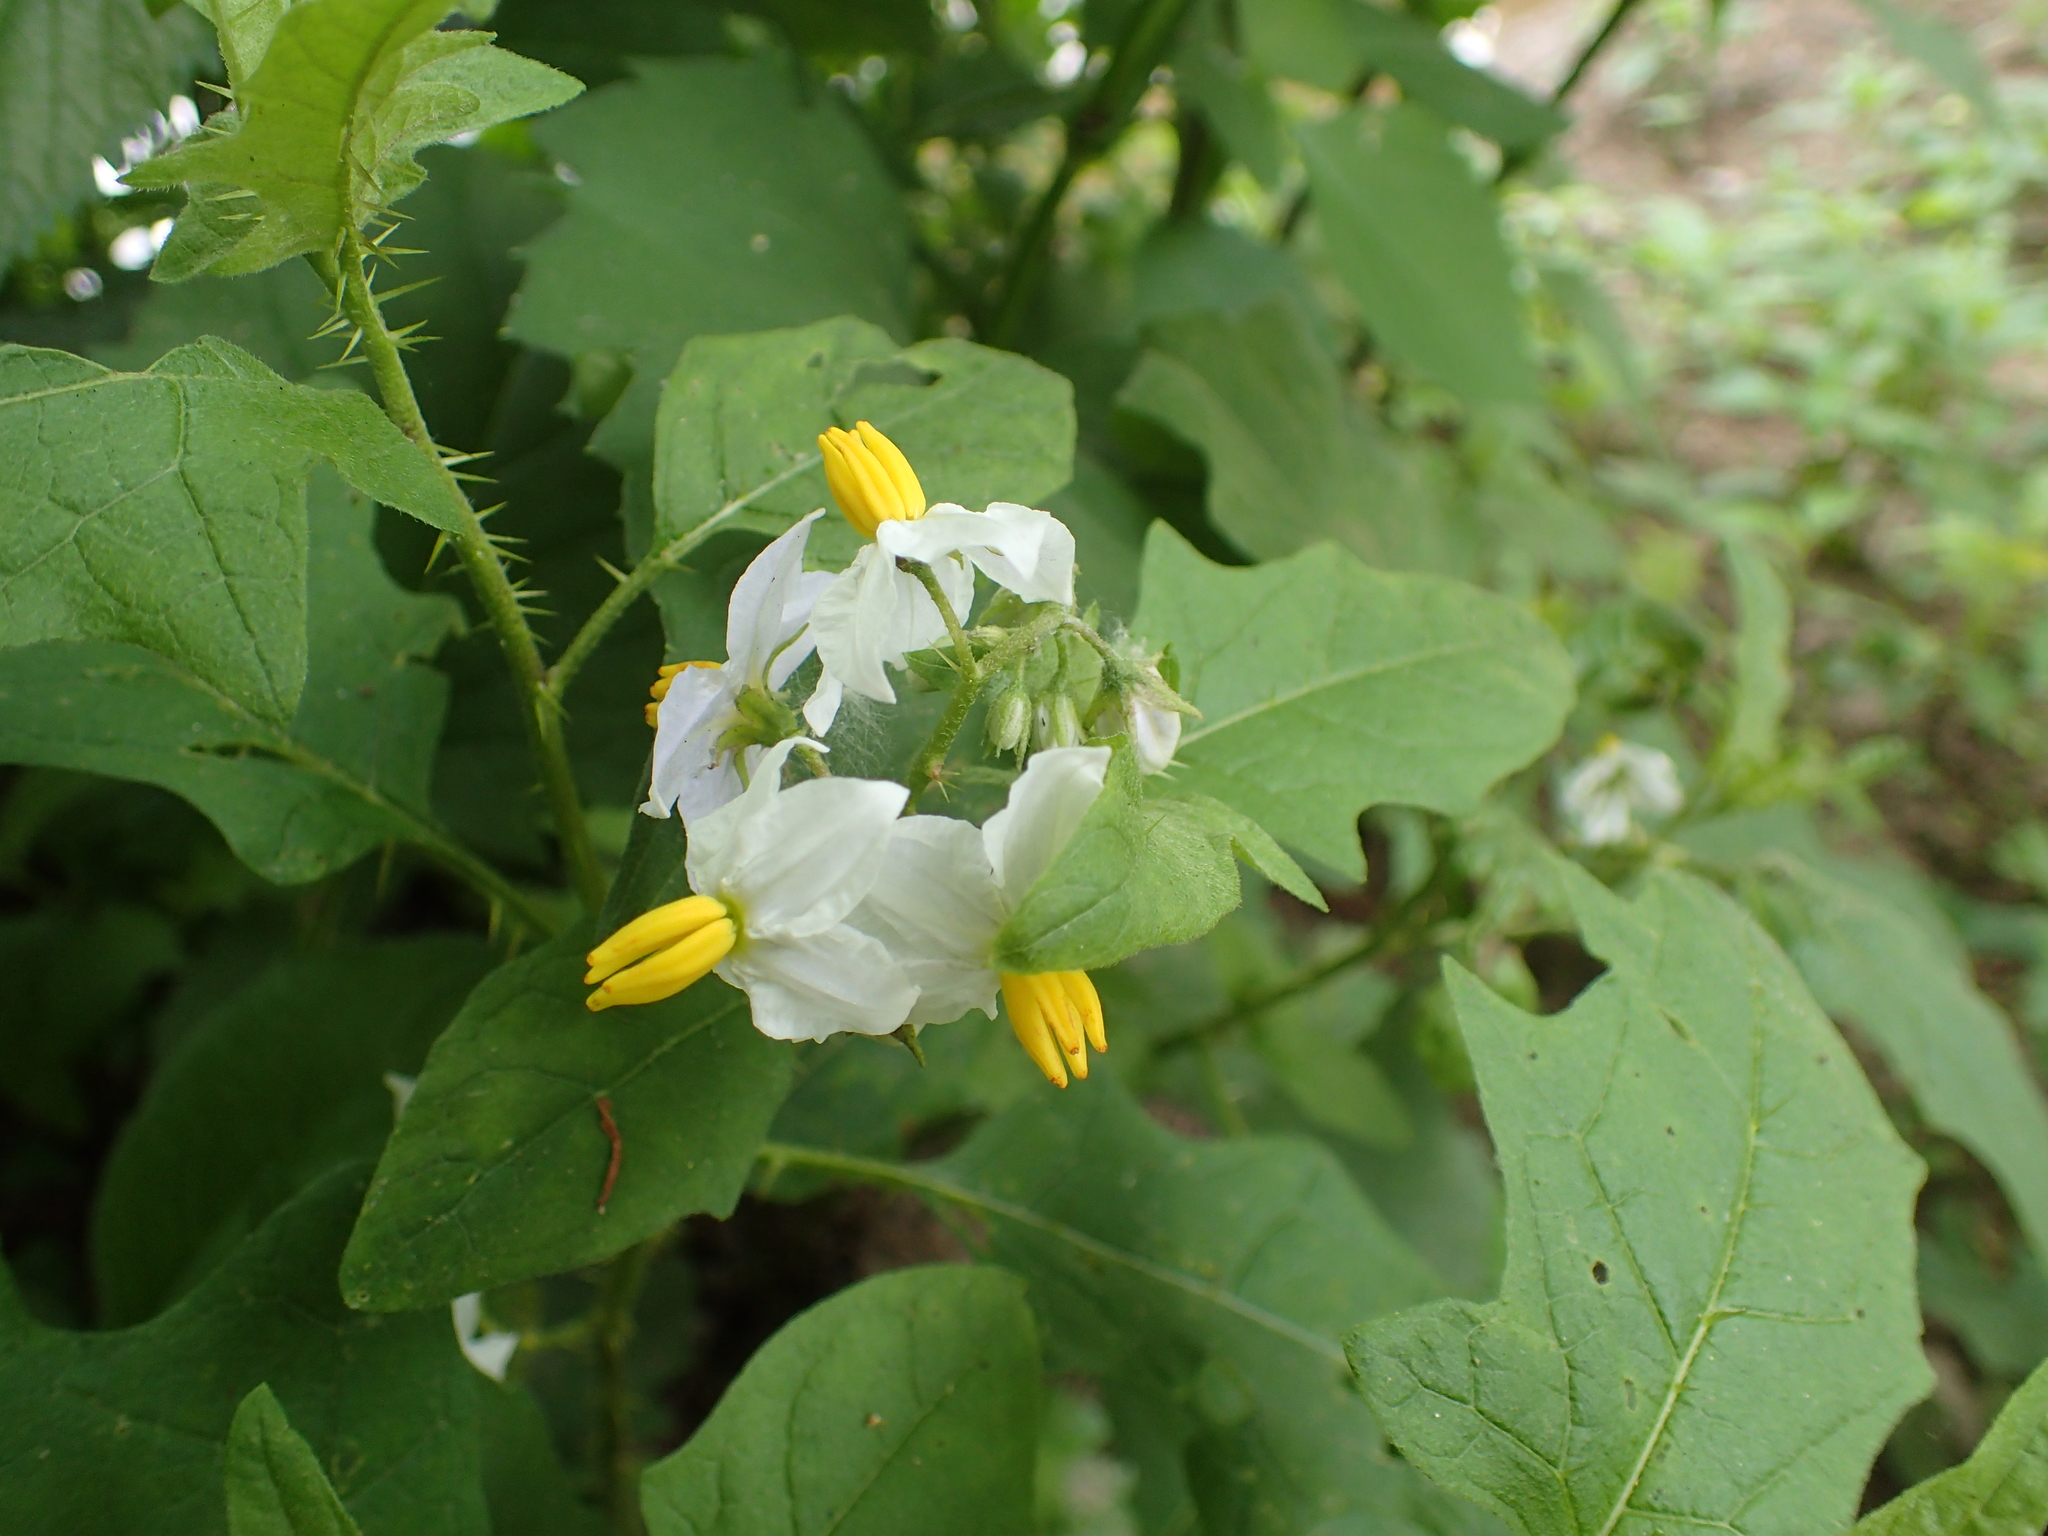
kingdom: Plantae
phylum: Tracheophyta
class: Magnoliopsida
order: Solanales
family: Solanaceae
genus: Solanum
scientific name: Solanum carolinense
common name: Horse-nettle
